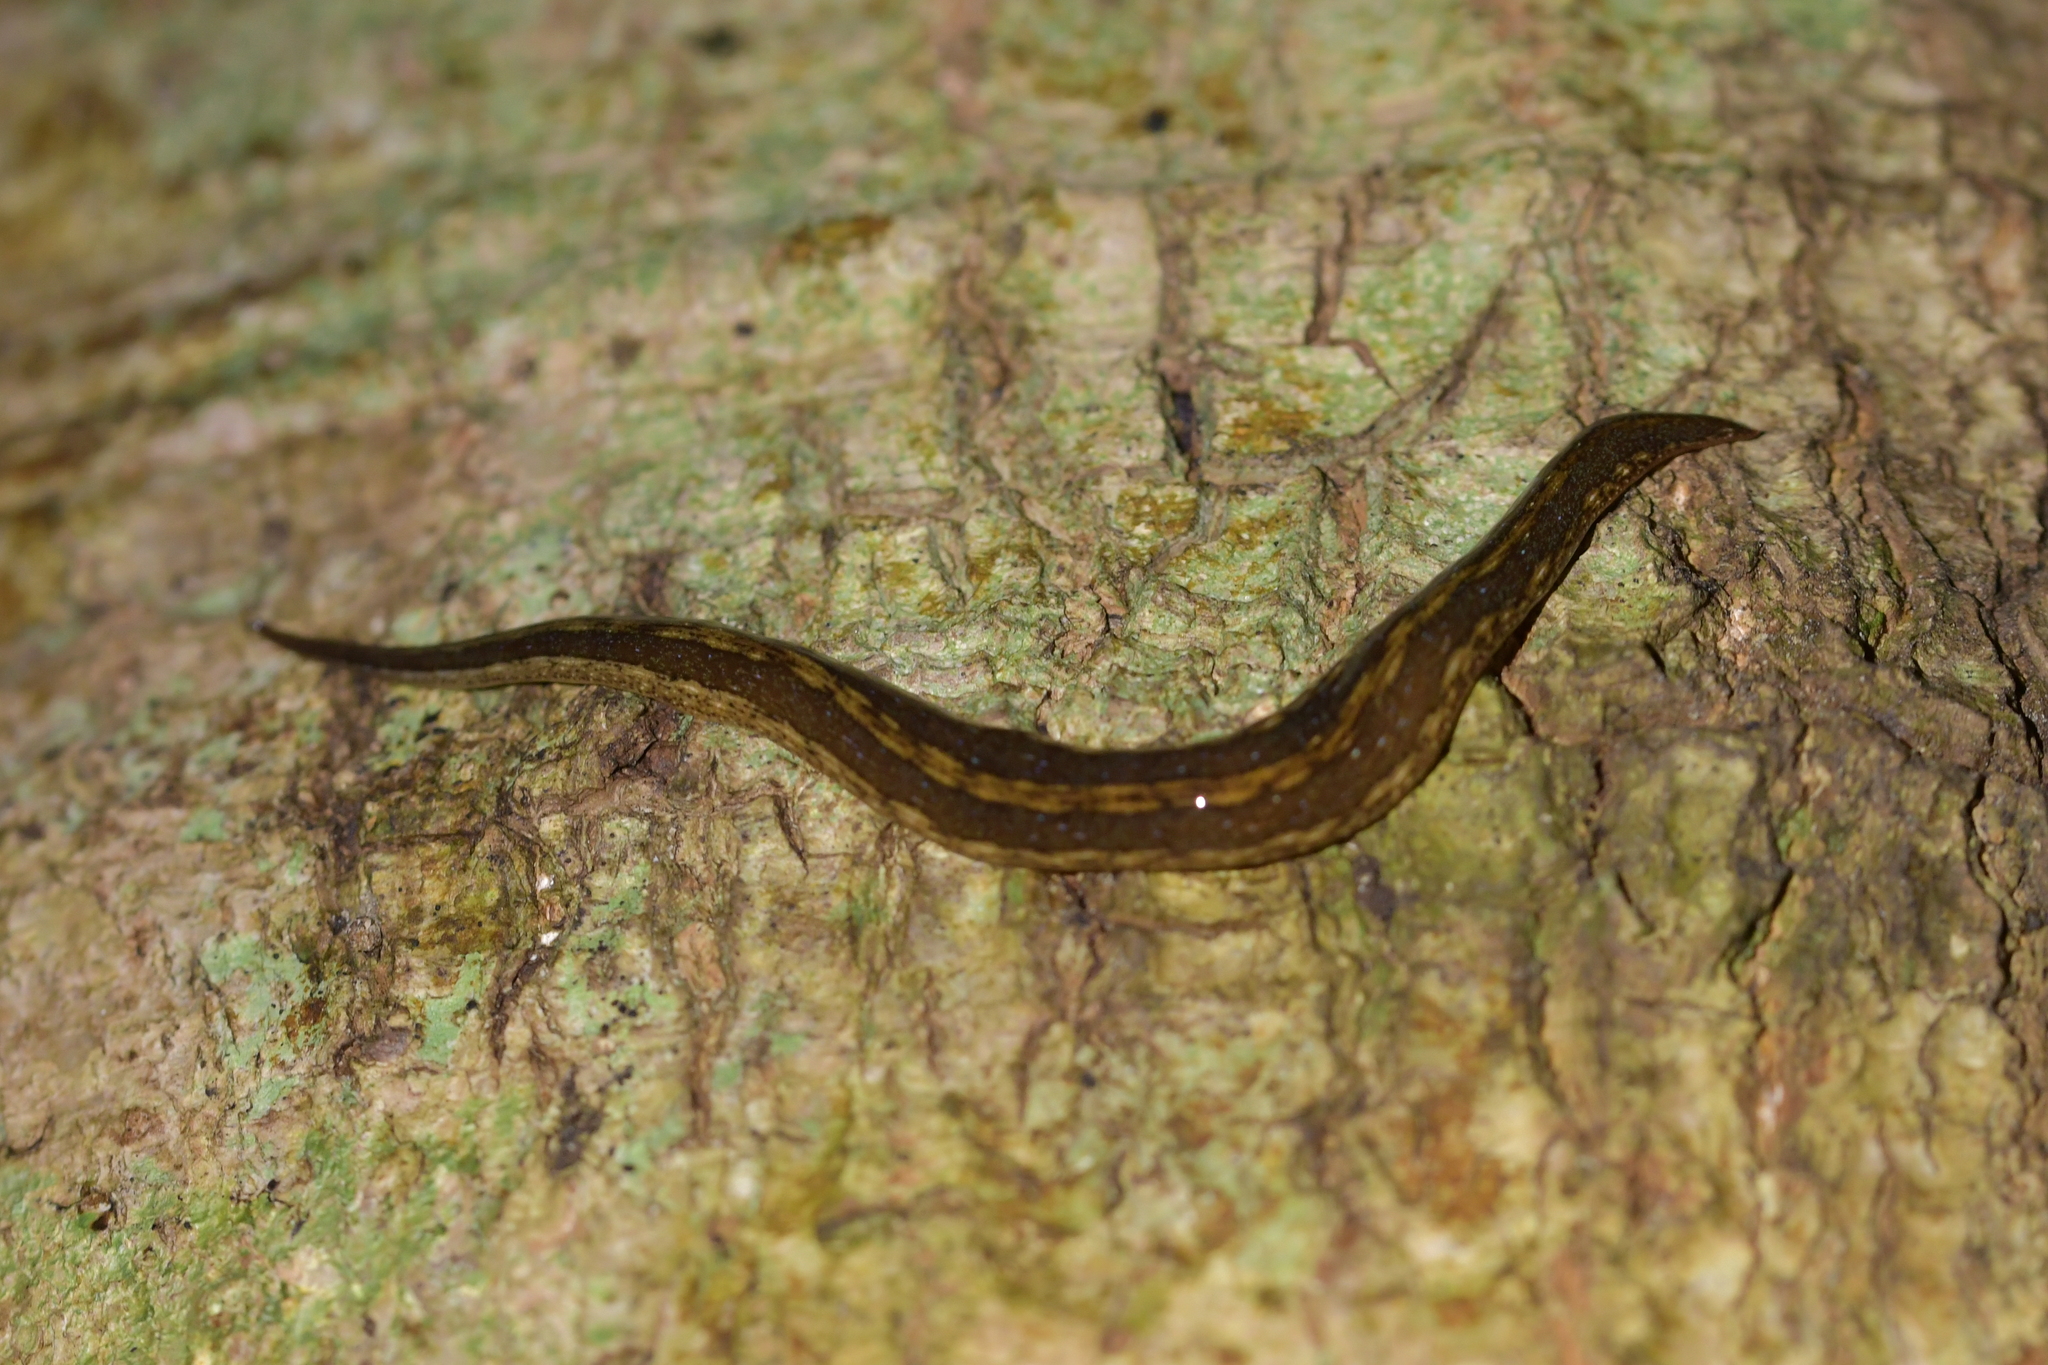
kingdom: Animalia
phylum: Platyhelminthes
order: Tricladida
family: Geoplanidae
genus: Australopacifica
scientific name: Australopacifica jacksoniana
